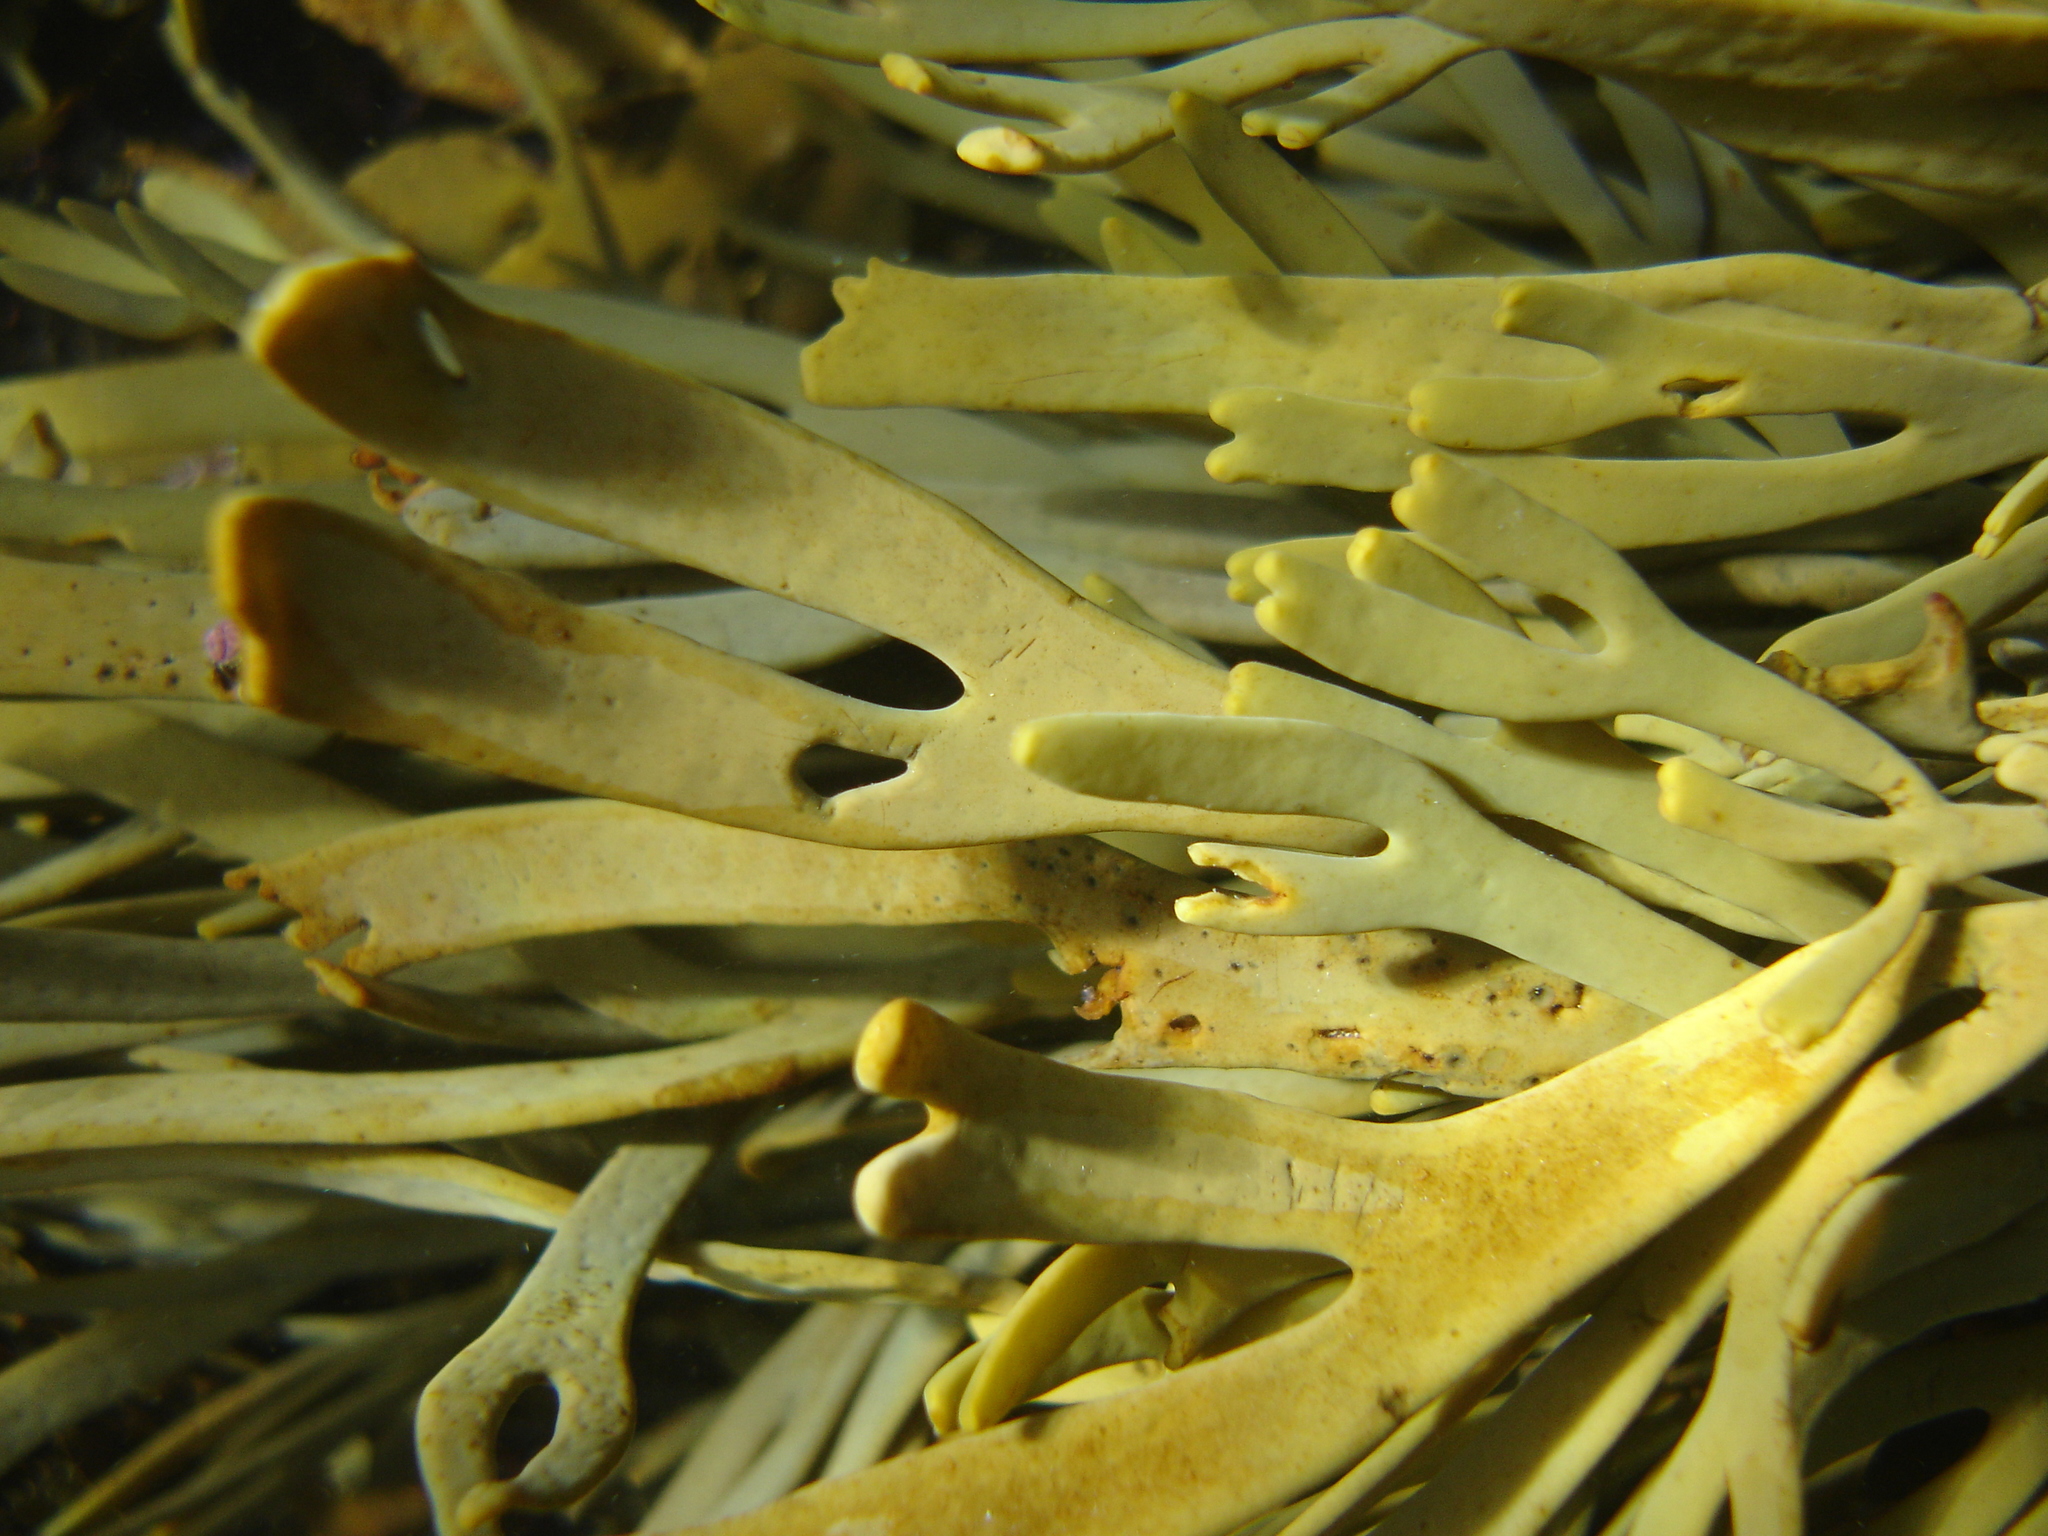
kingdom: Chromista
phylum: Ochrophyta
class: Phaeophyceae
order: Fucales
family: Xiphophoraceae
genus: Xiphophora
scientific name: Xiphophora gladiata
